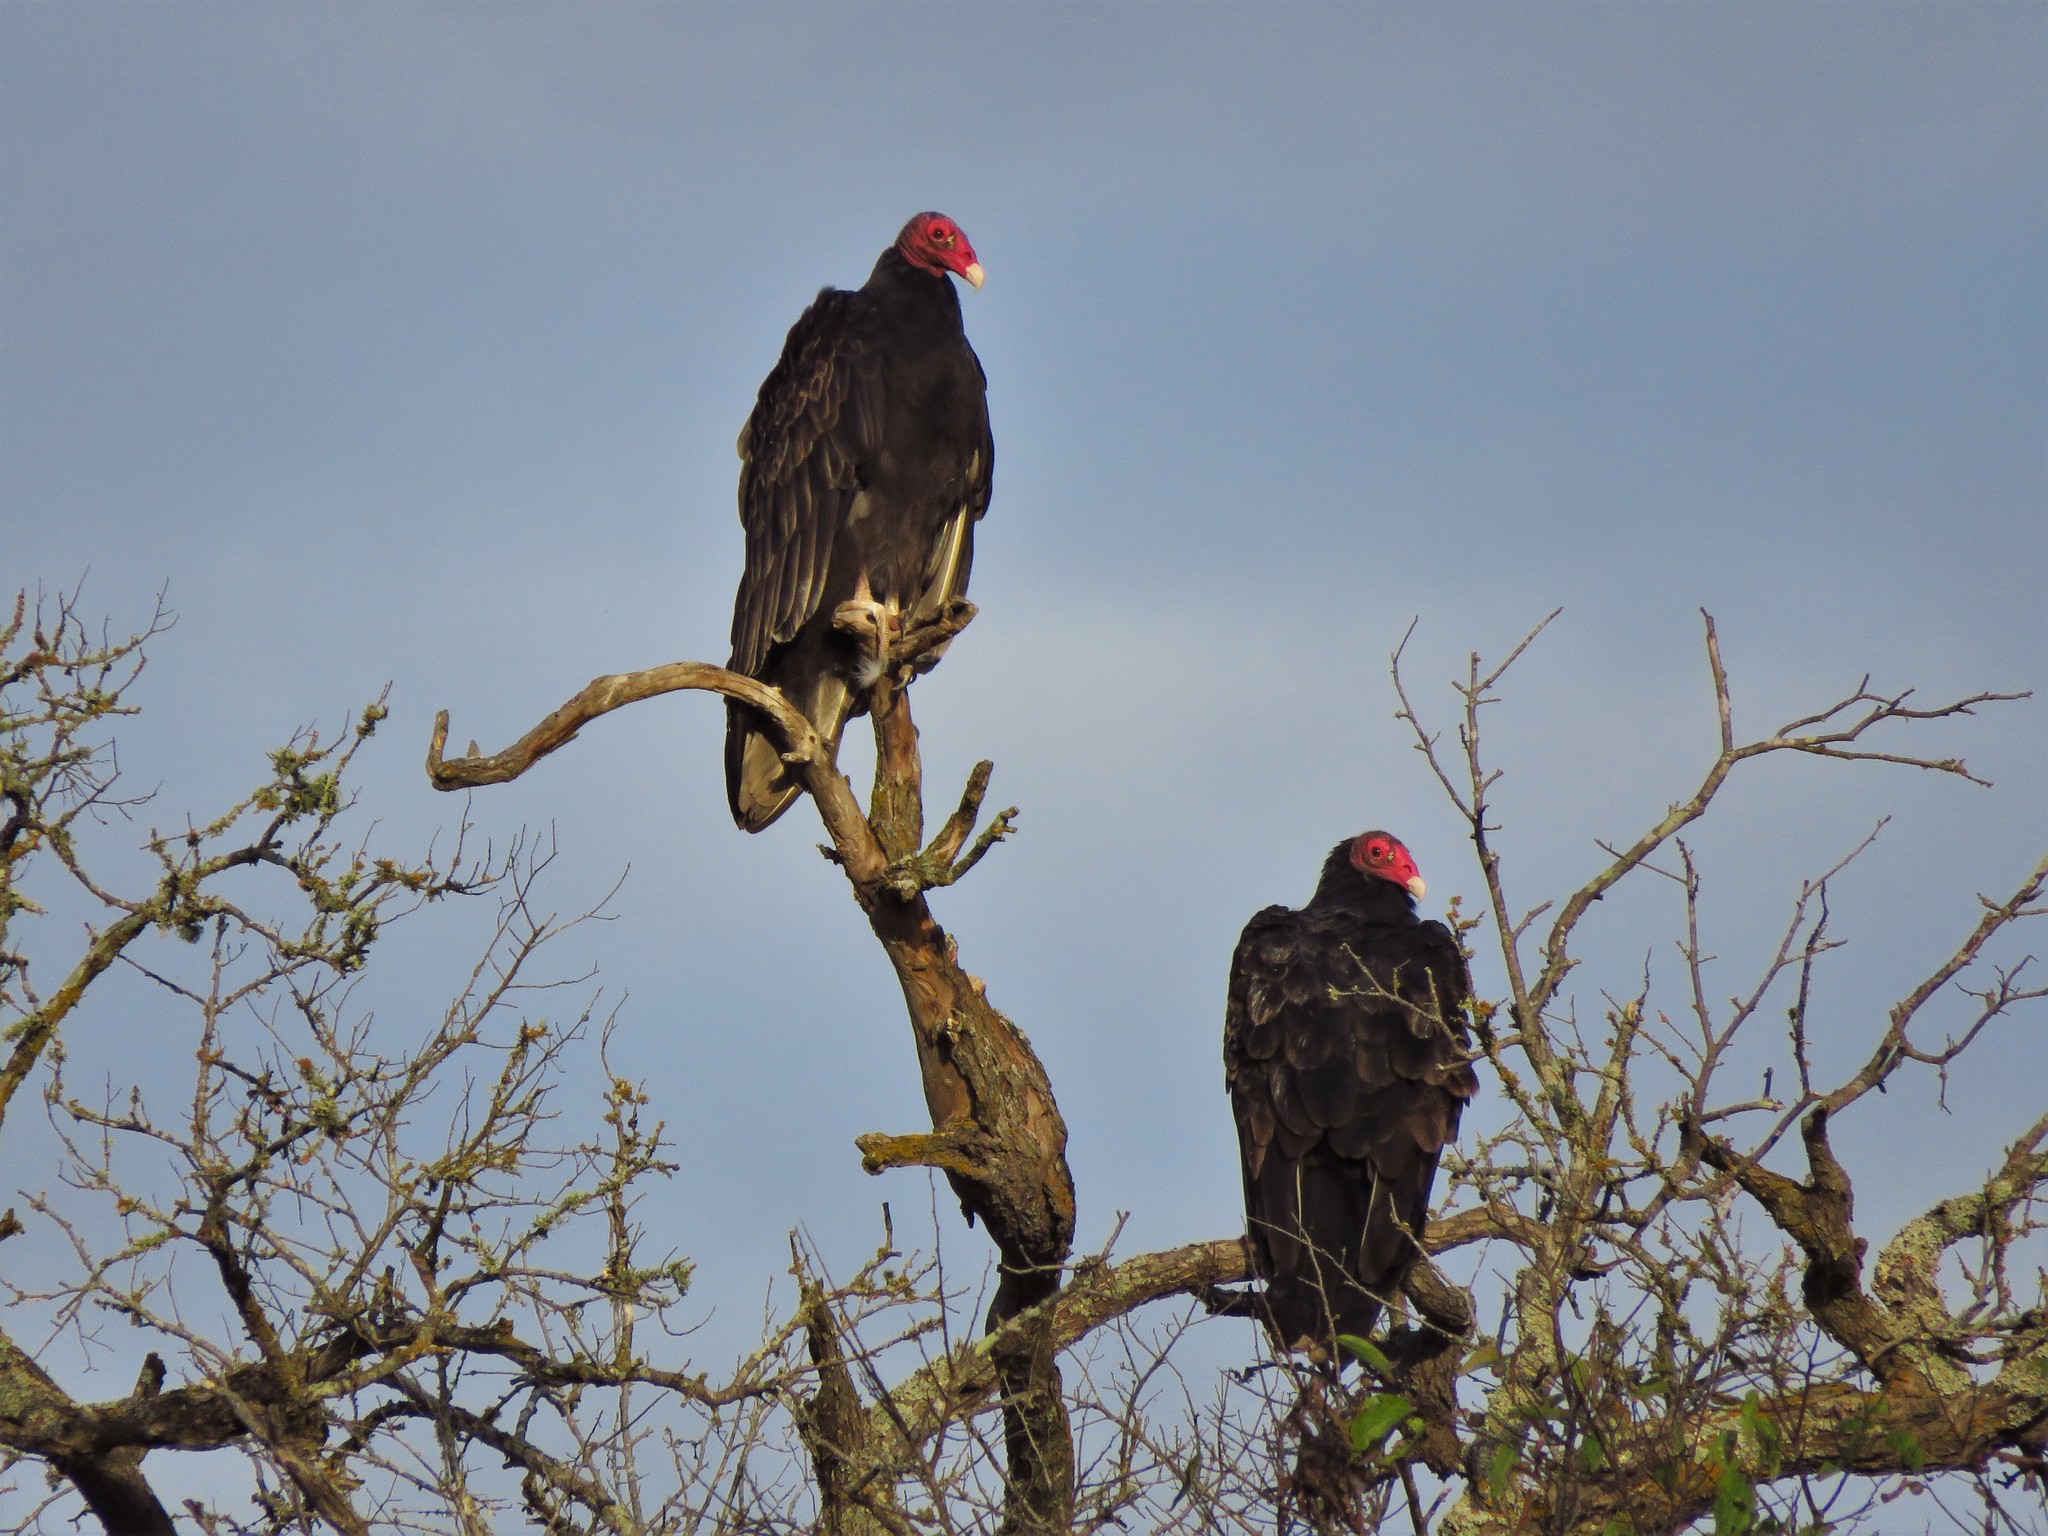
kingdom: Animalia
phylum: Chordata
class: Aves
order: Accipitriformes
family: Cathartidae
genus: Cathartes
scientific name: Cathartes aura
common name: Turkey vulture
